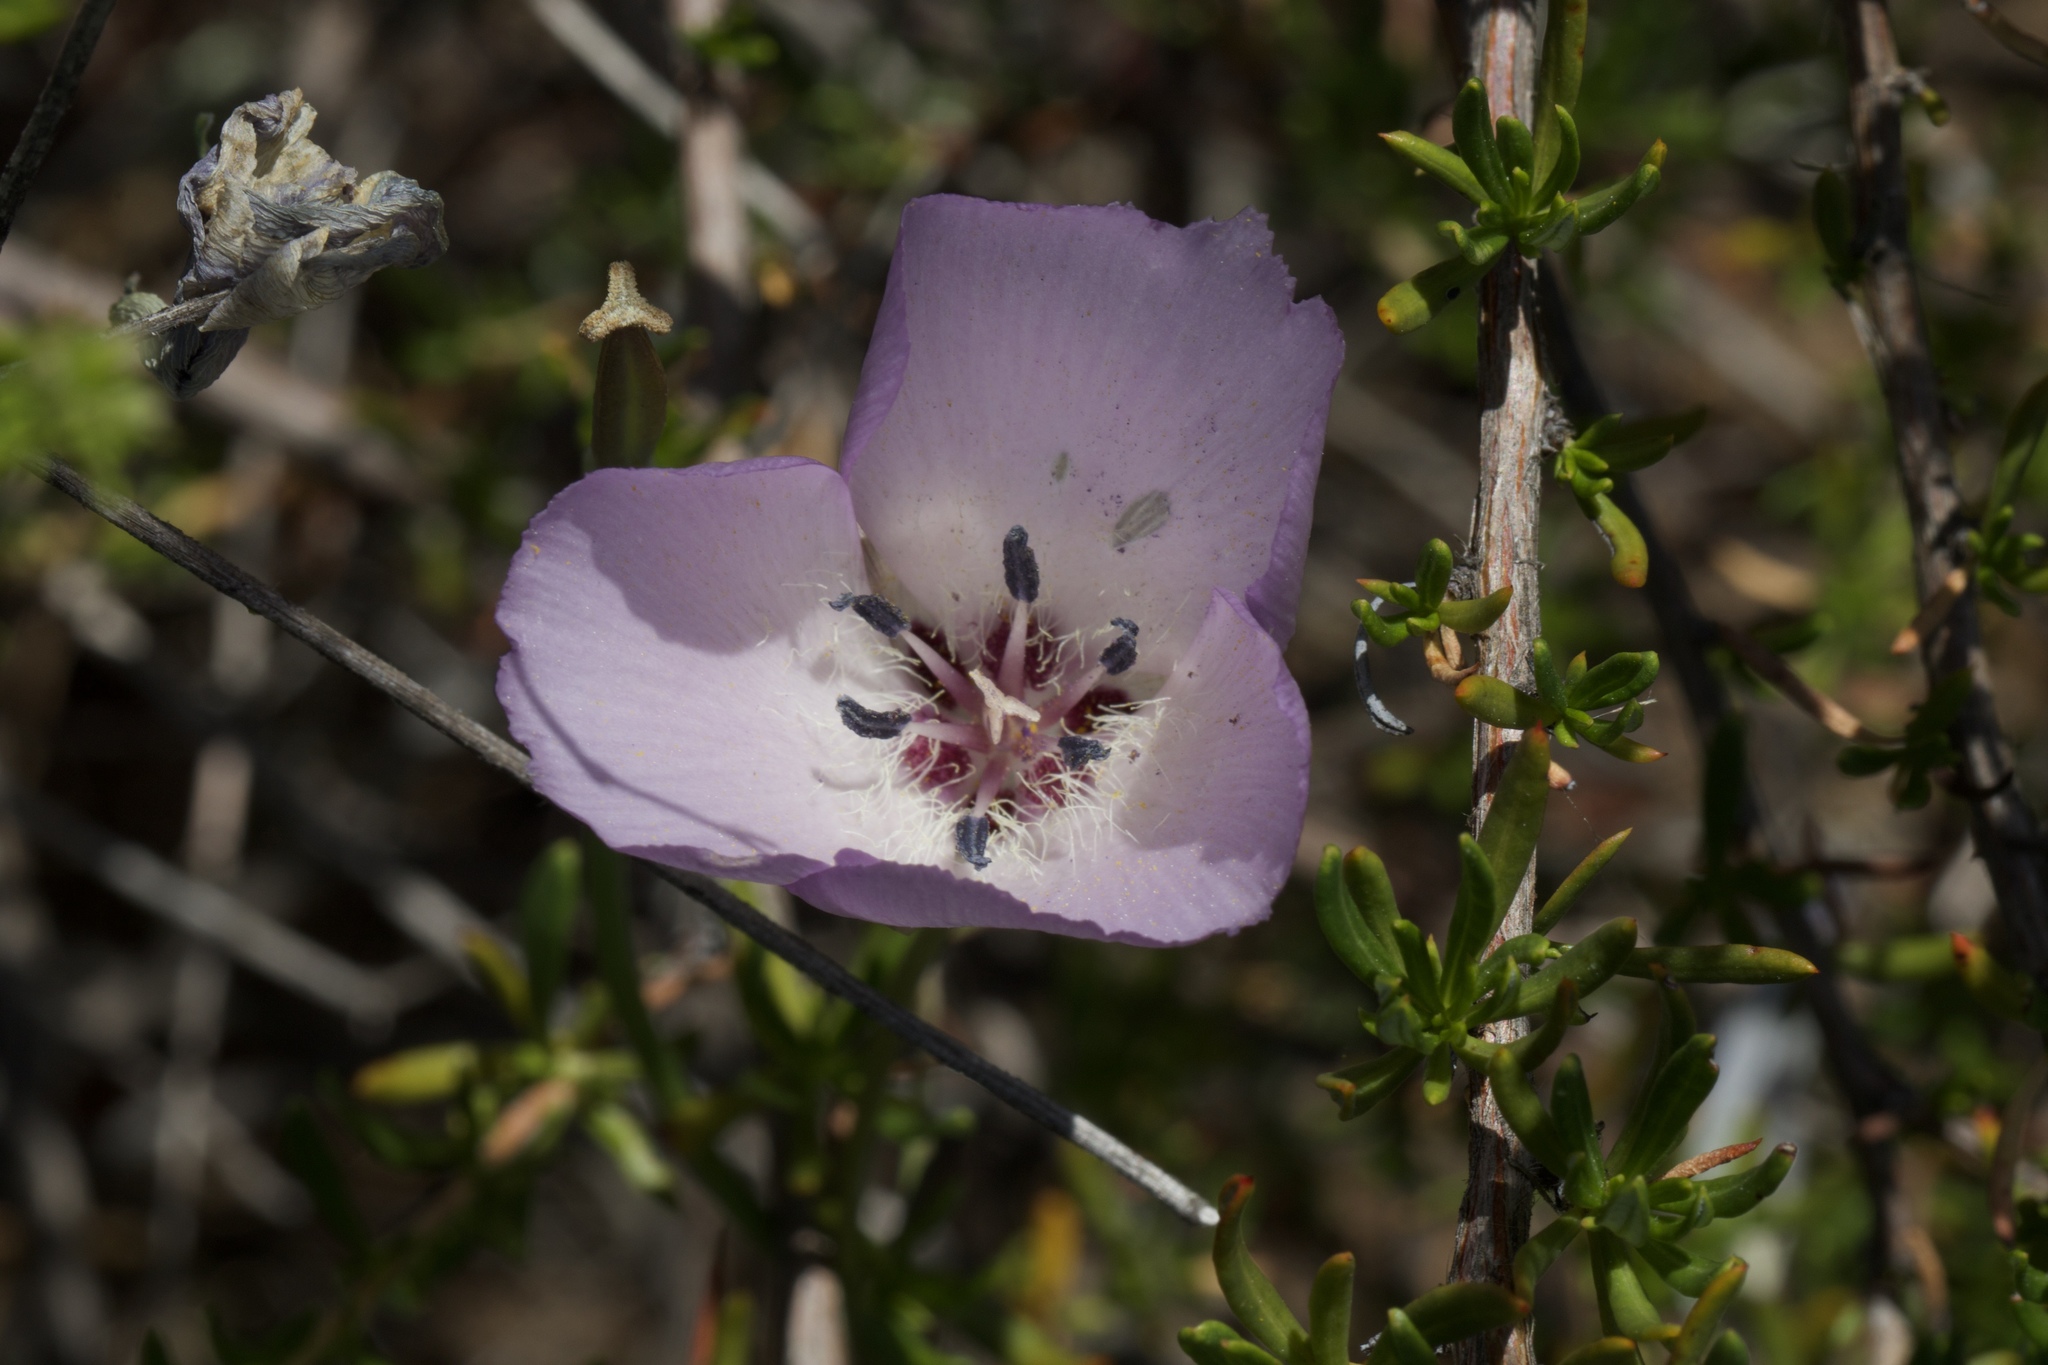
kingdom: Plantae
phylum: Tracheophyta
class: Liliopsida
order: Liliales
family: Liliaceae
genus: Calochortus
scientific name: Calochortus splendens
